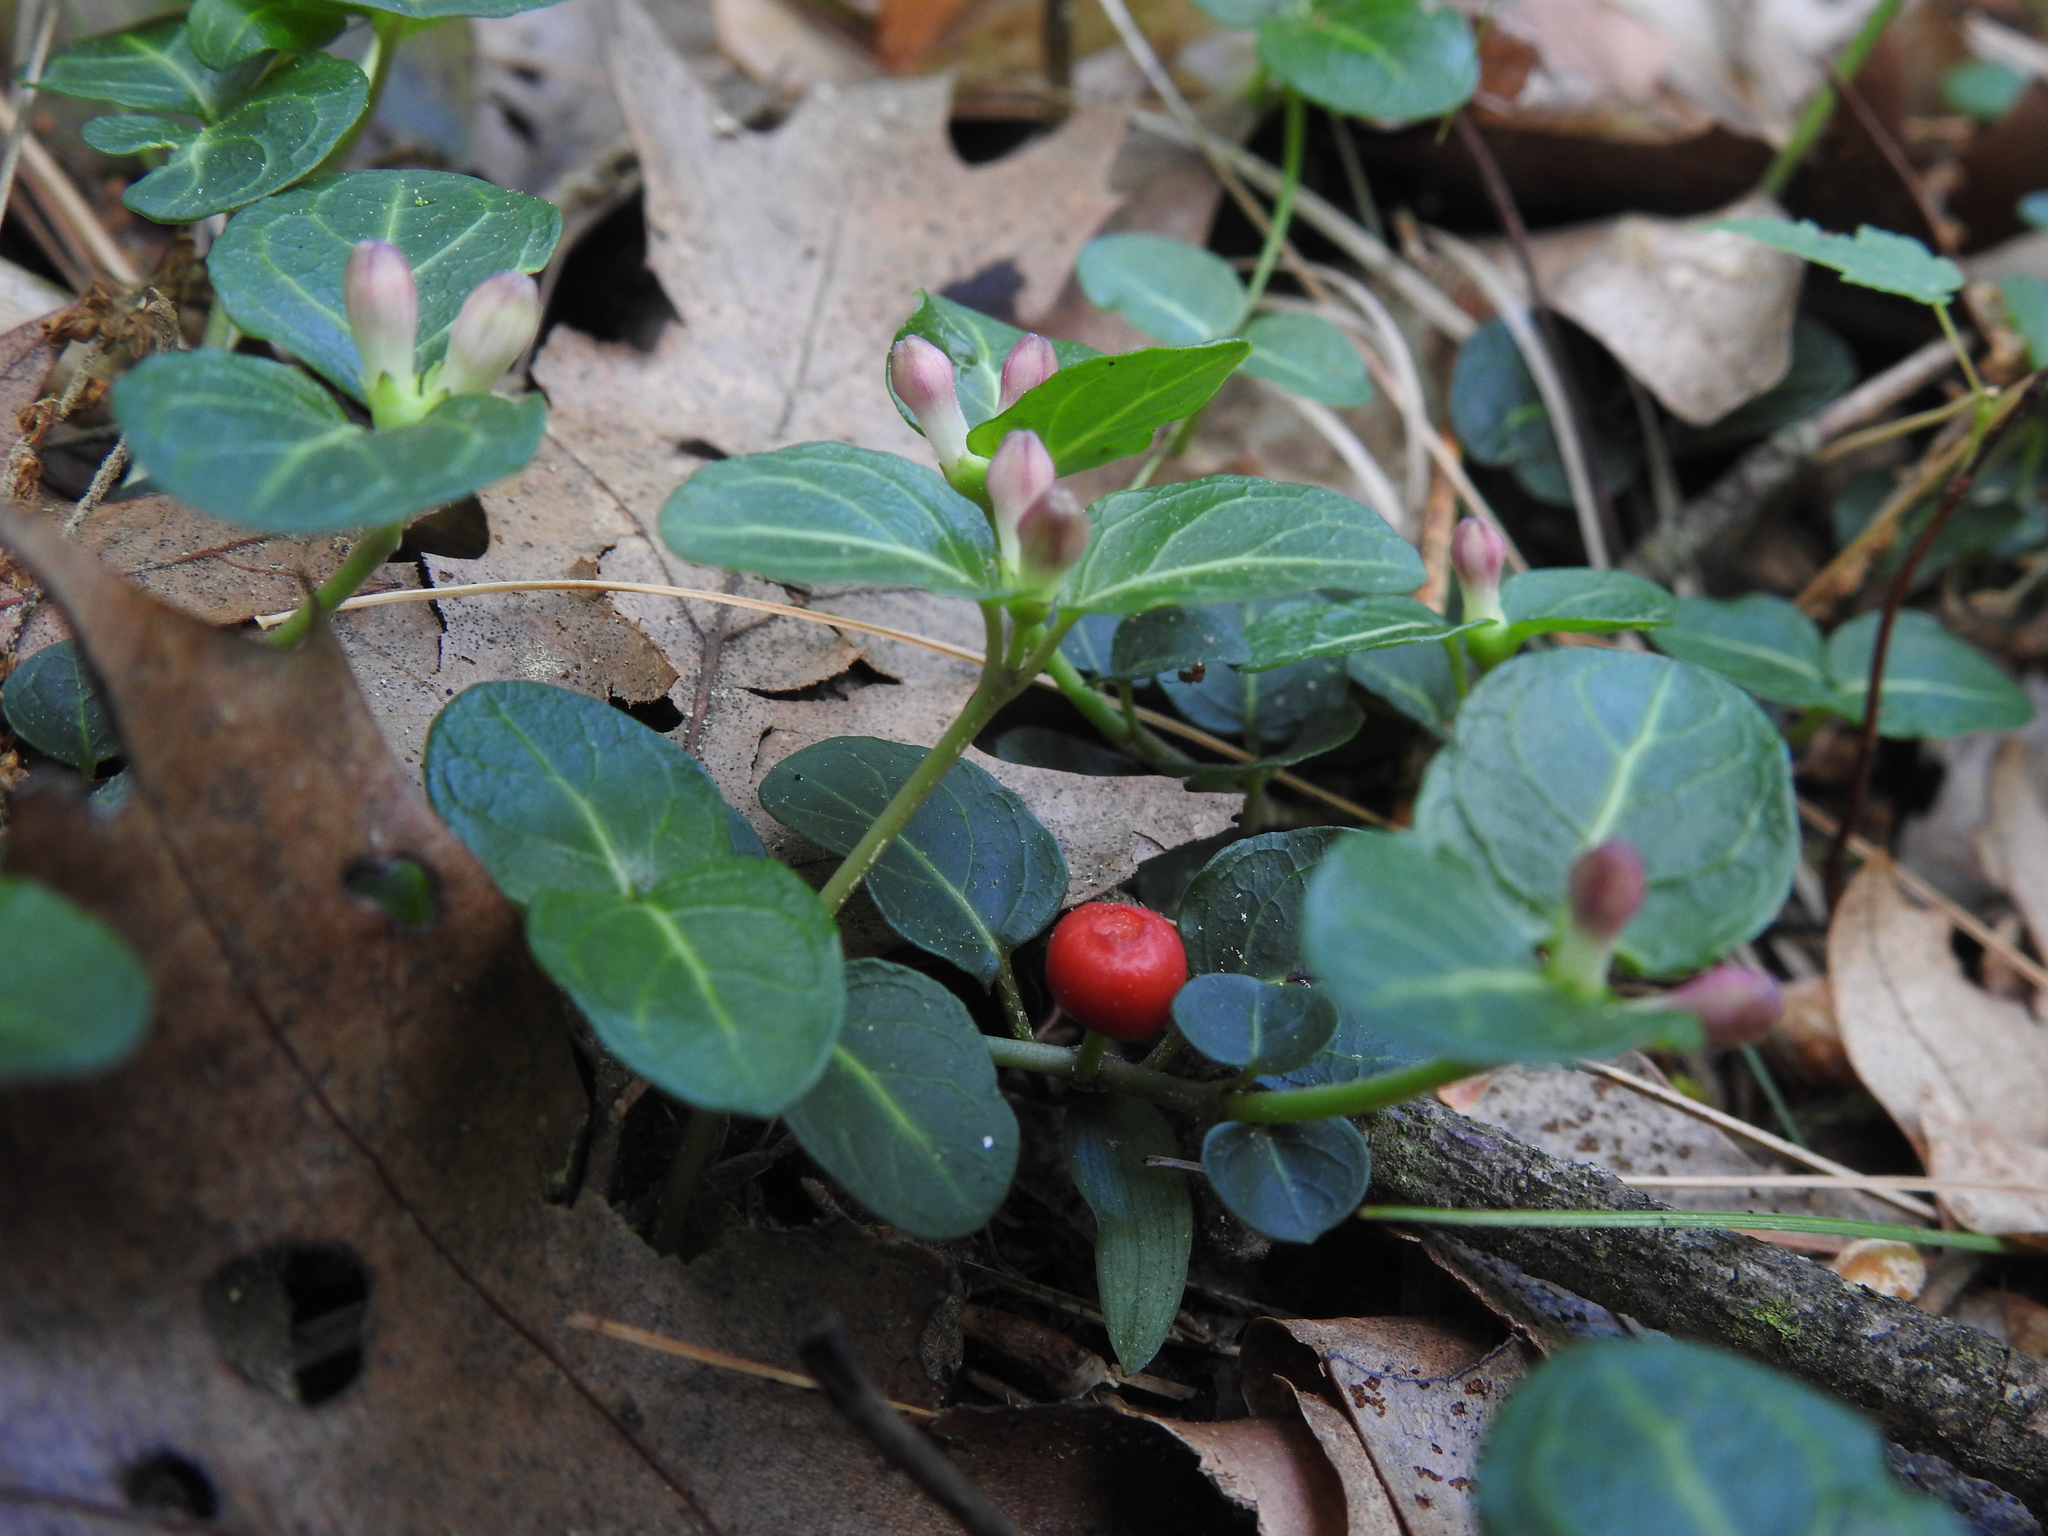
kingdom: Plantae
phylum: Tracheophyta
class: Magnoliopsida
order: Gentianales
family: Rubiaceae
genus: Mitchella
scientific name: Mitchella repens
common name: Partridge-berry
